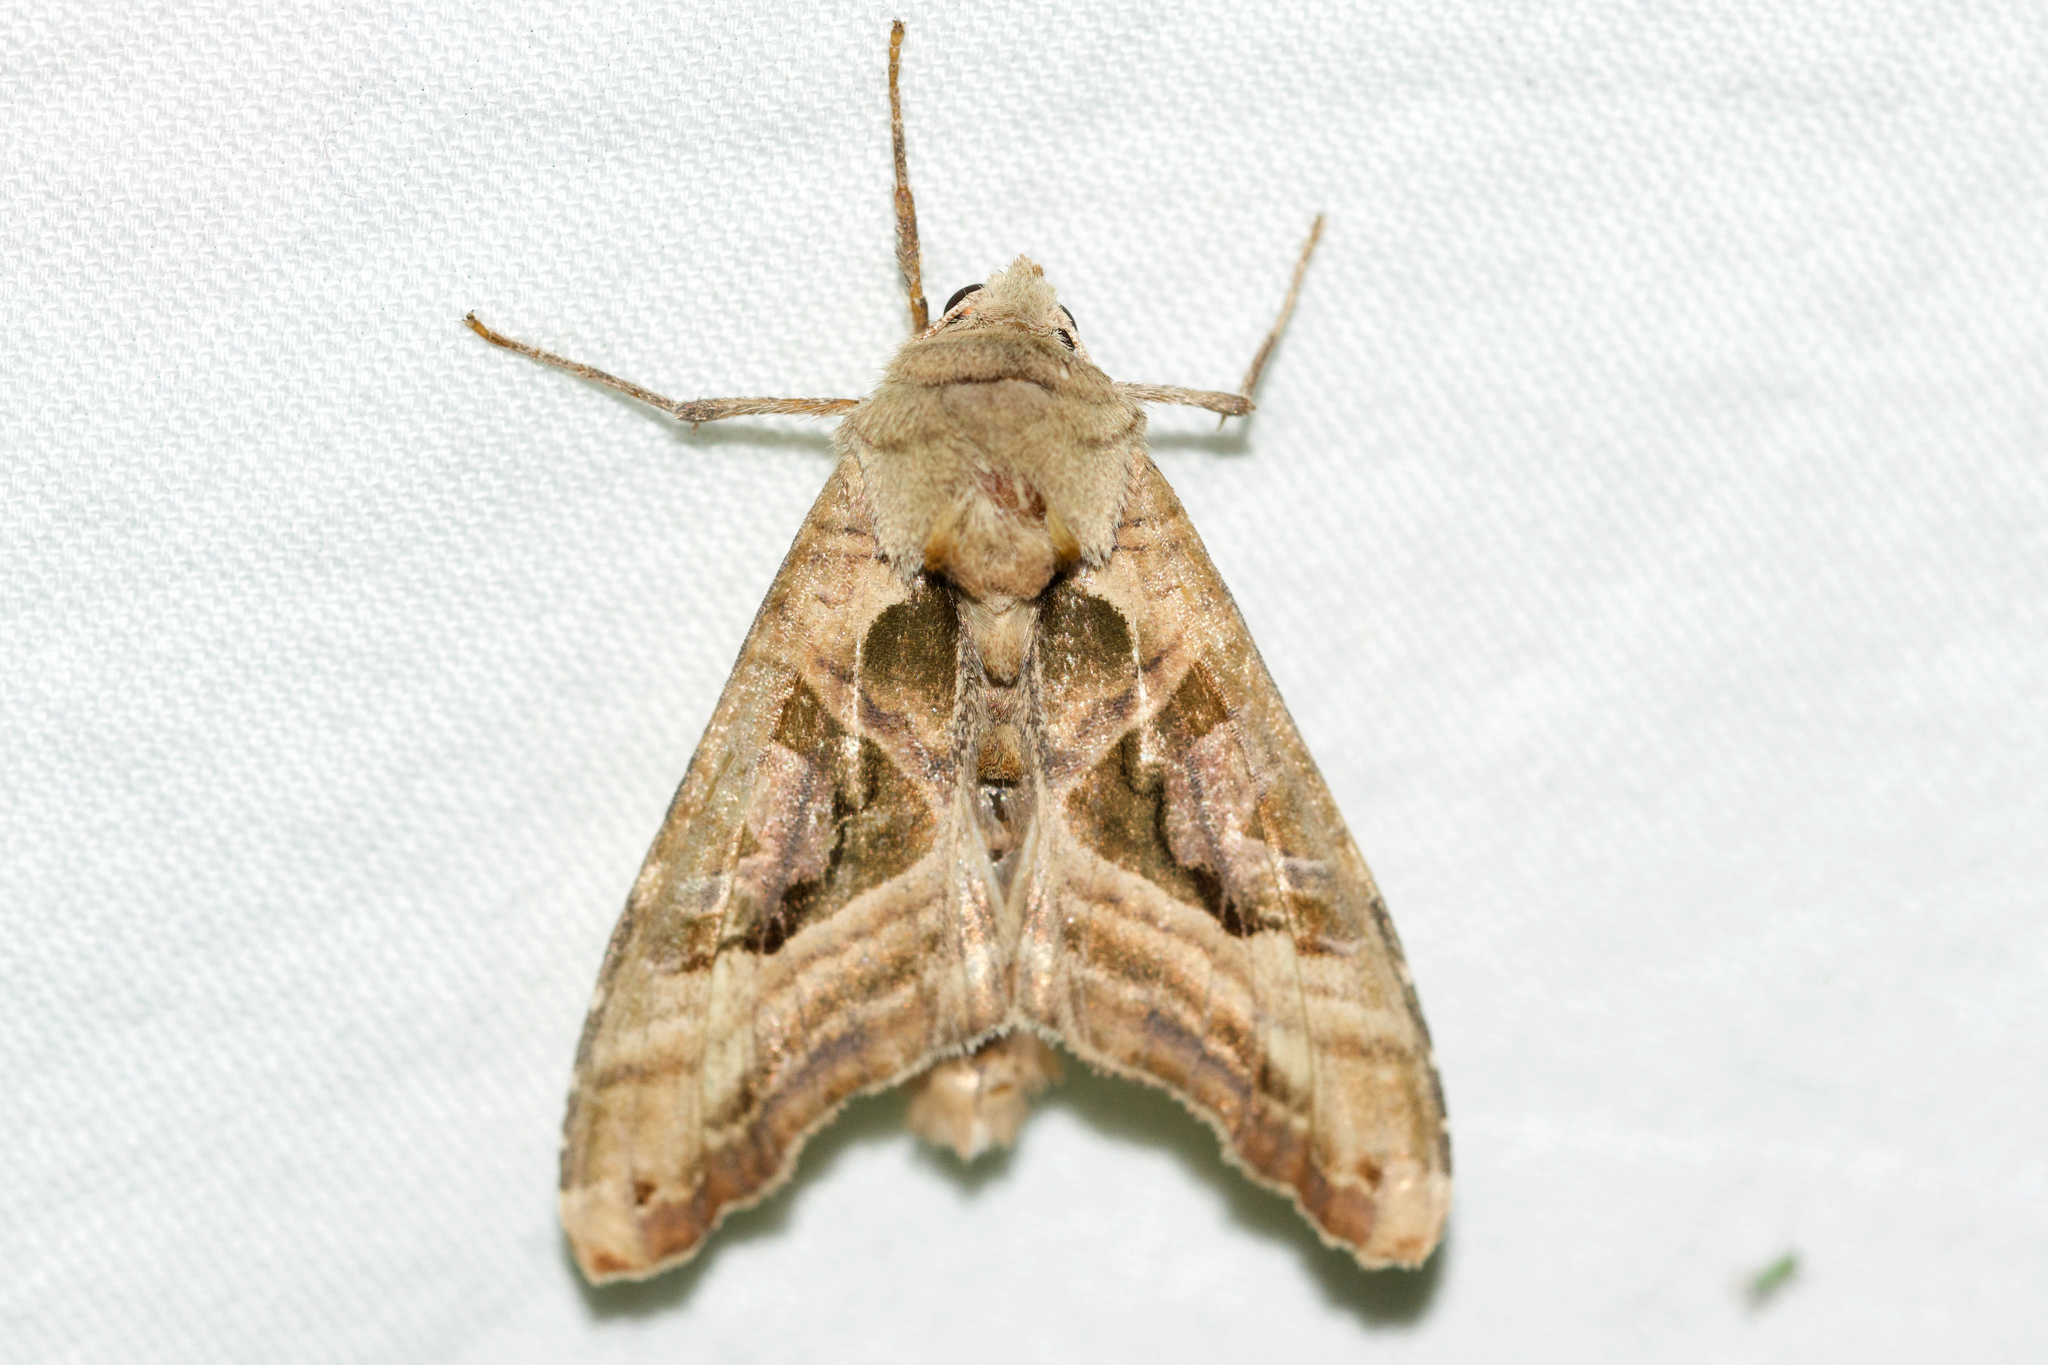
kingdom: Animalia
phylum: Arthropoda
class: Insecta
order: Lepidoptera
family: Noctuidae
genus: Phlogophora
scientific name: Phlogophora iris
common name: Olive angle shades
